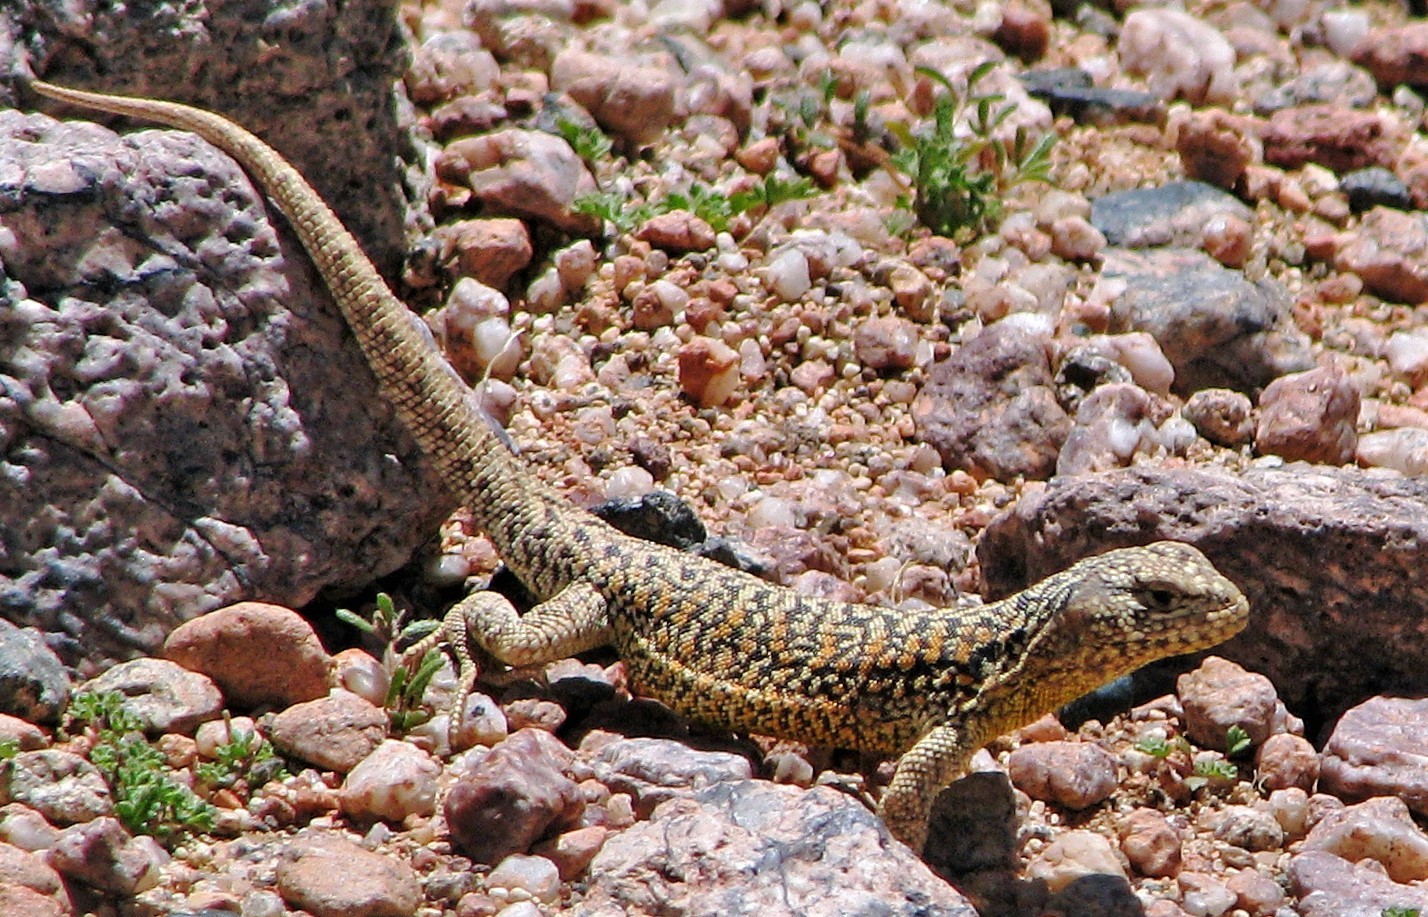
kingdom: Animalia
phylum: Chordata
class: Squamata
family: Liolaemidae
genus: Liolaemus
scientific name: Liolaemus eleodori
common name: Eleodor's tree iguana
